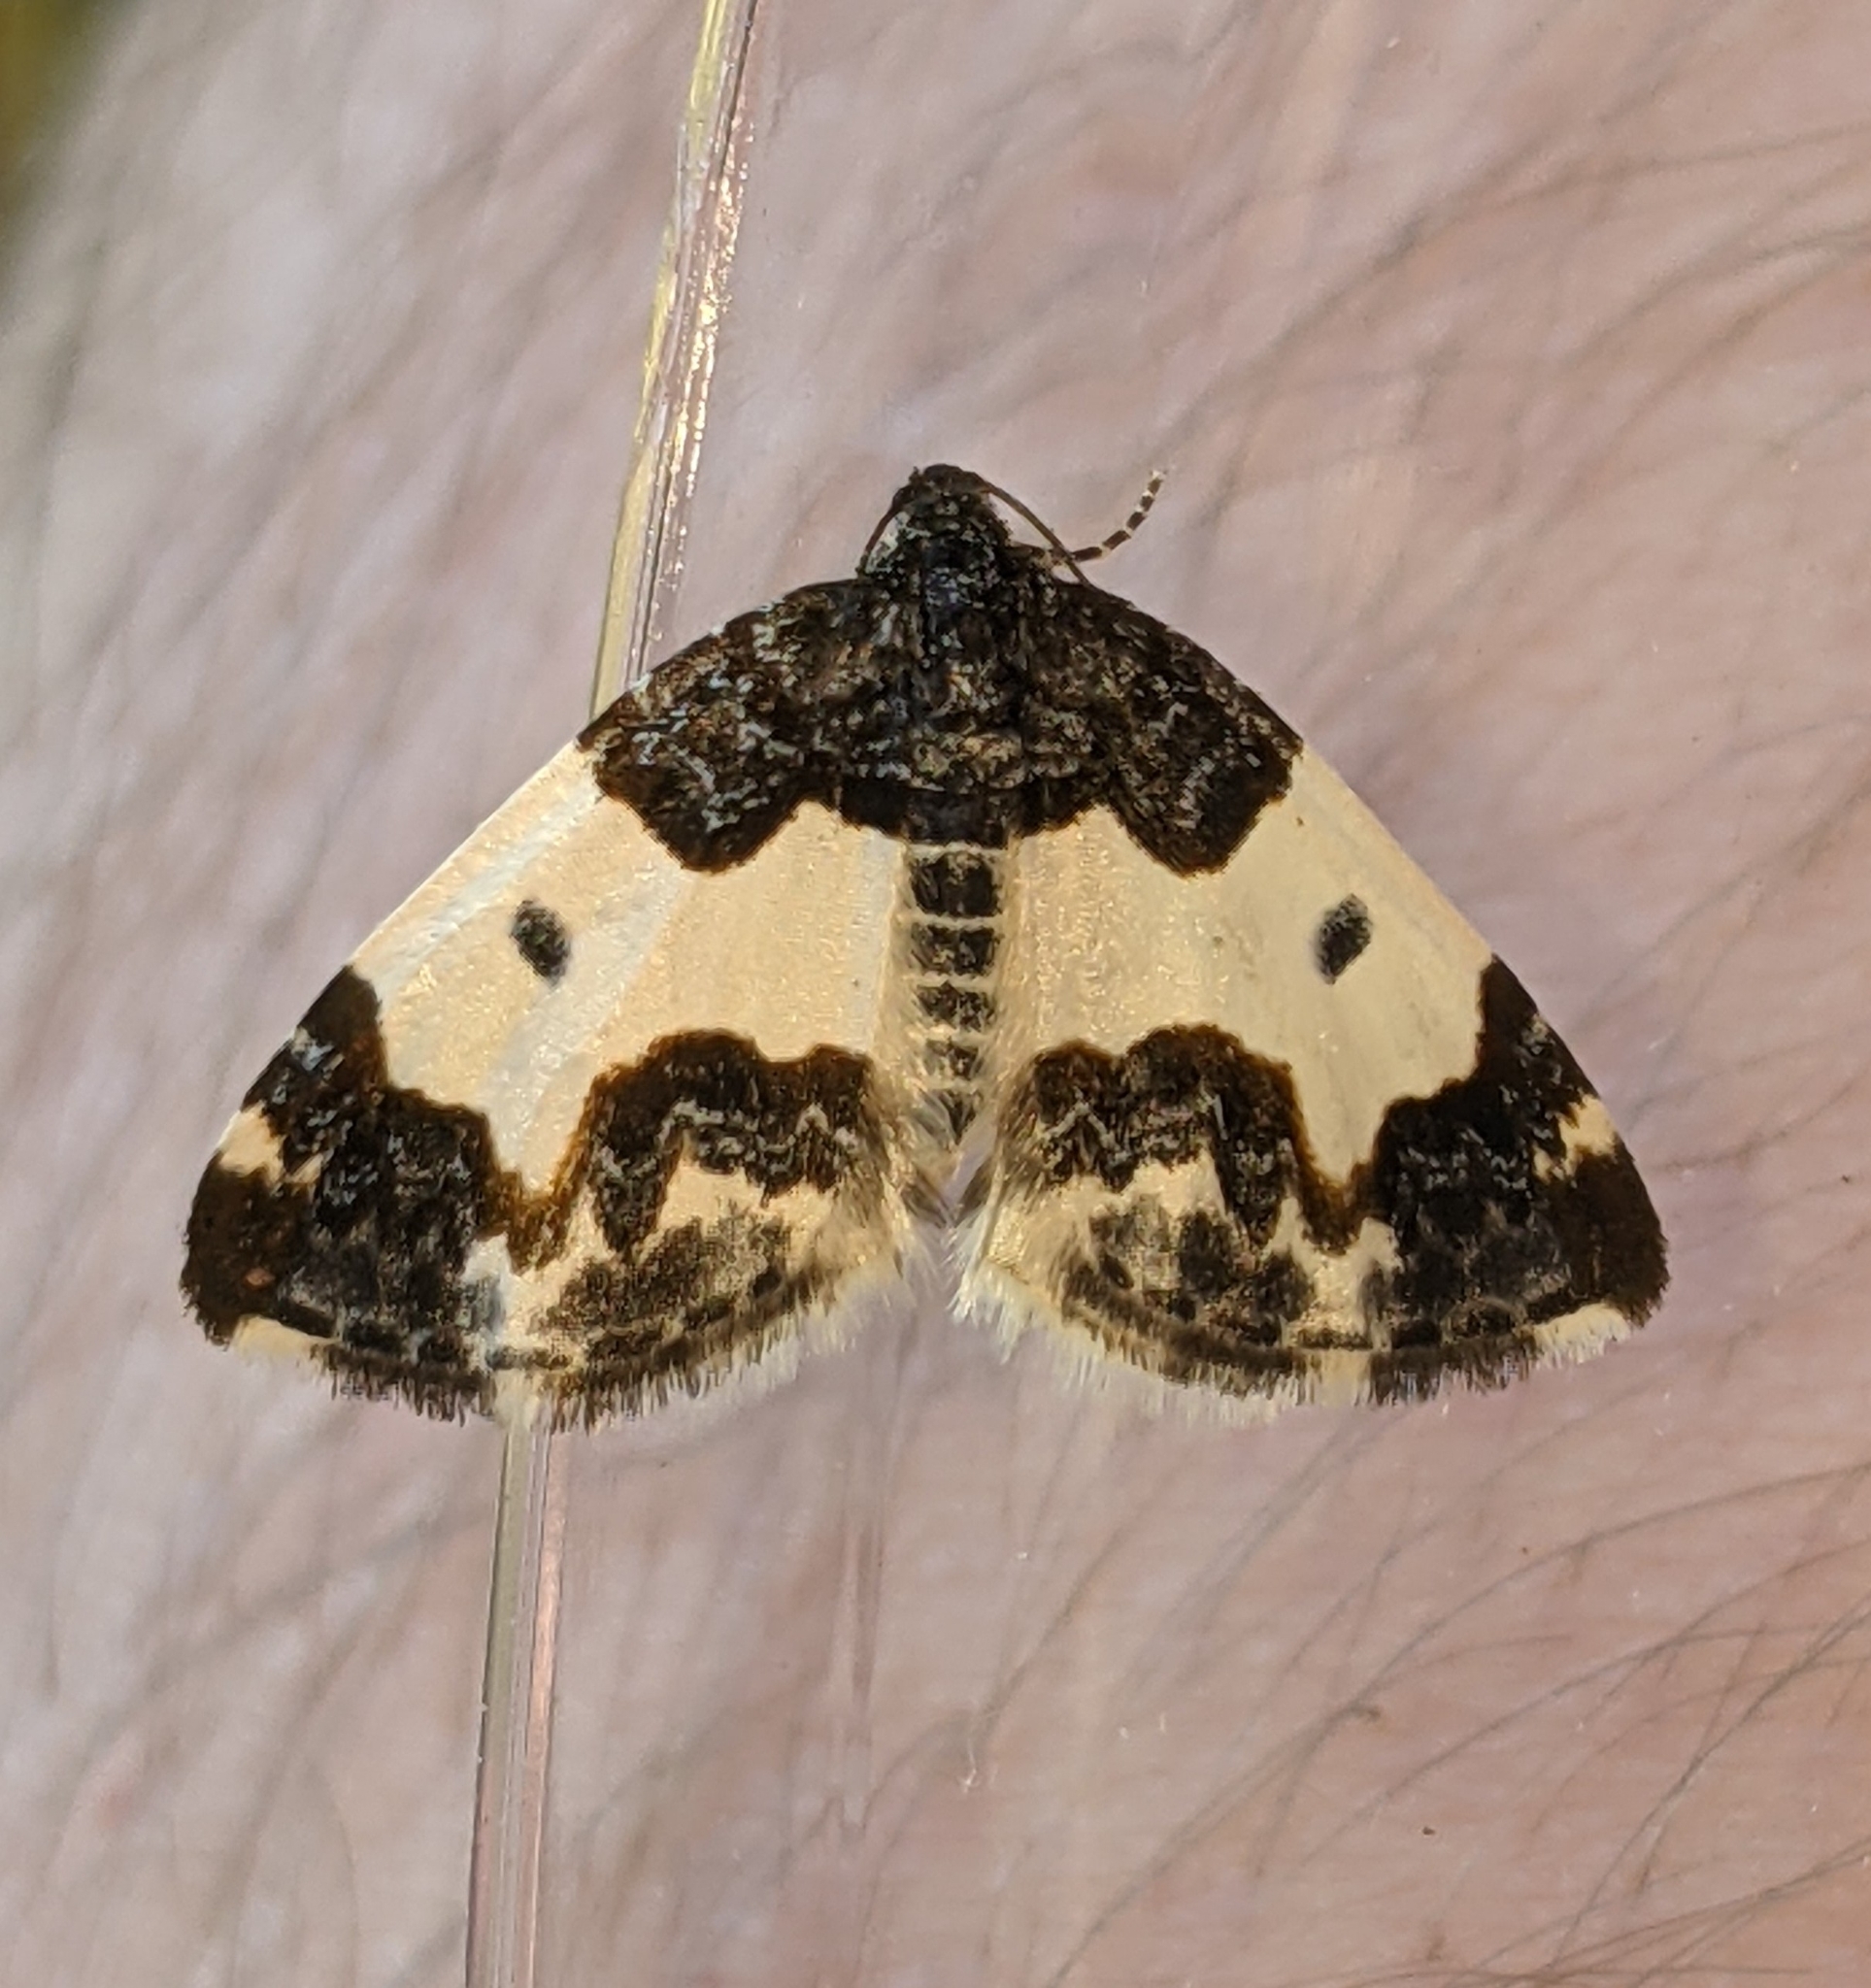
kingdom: Animalia
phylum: Arthropoda
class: Insecta
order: Lepidoptera
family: Geometridae
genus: Mesoleuca
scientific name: Mesoleuca gratulata
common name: Half-white carpet moth
